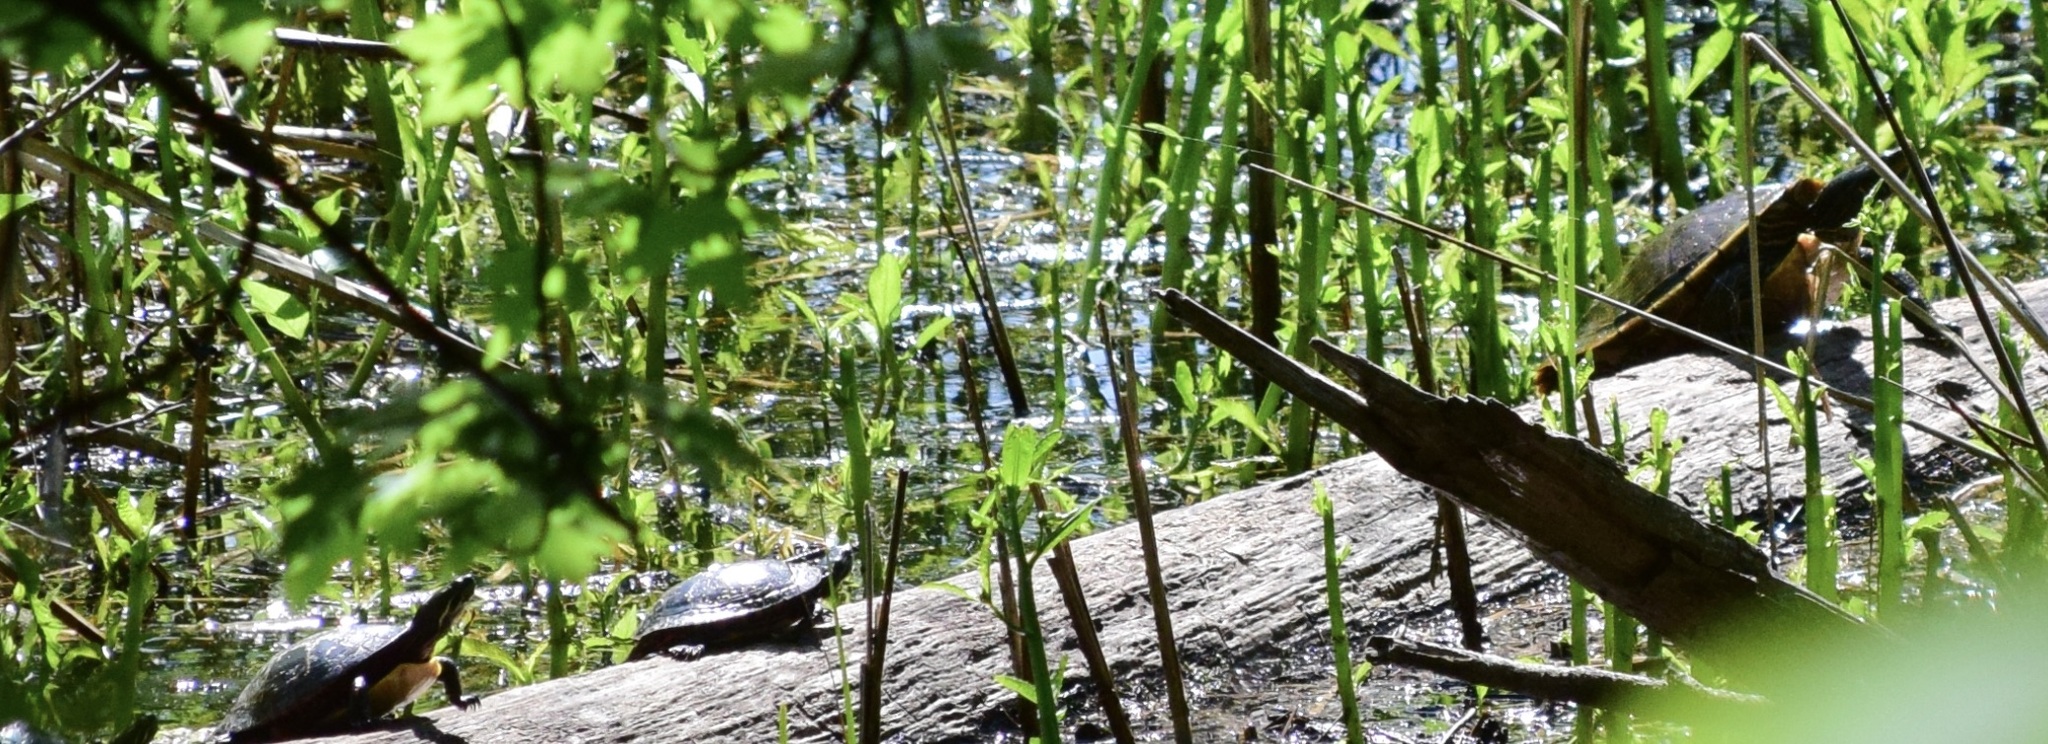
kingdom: Animalia
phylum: Chordata
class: Testudines
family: Emydidae
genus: Chrysemys
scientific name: Chrysemys picta
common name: Painted turtle
